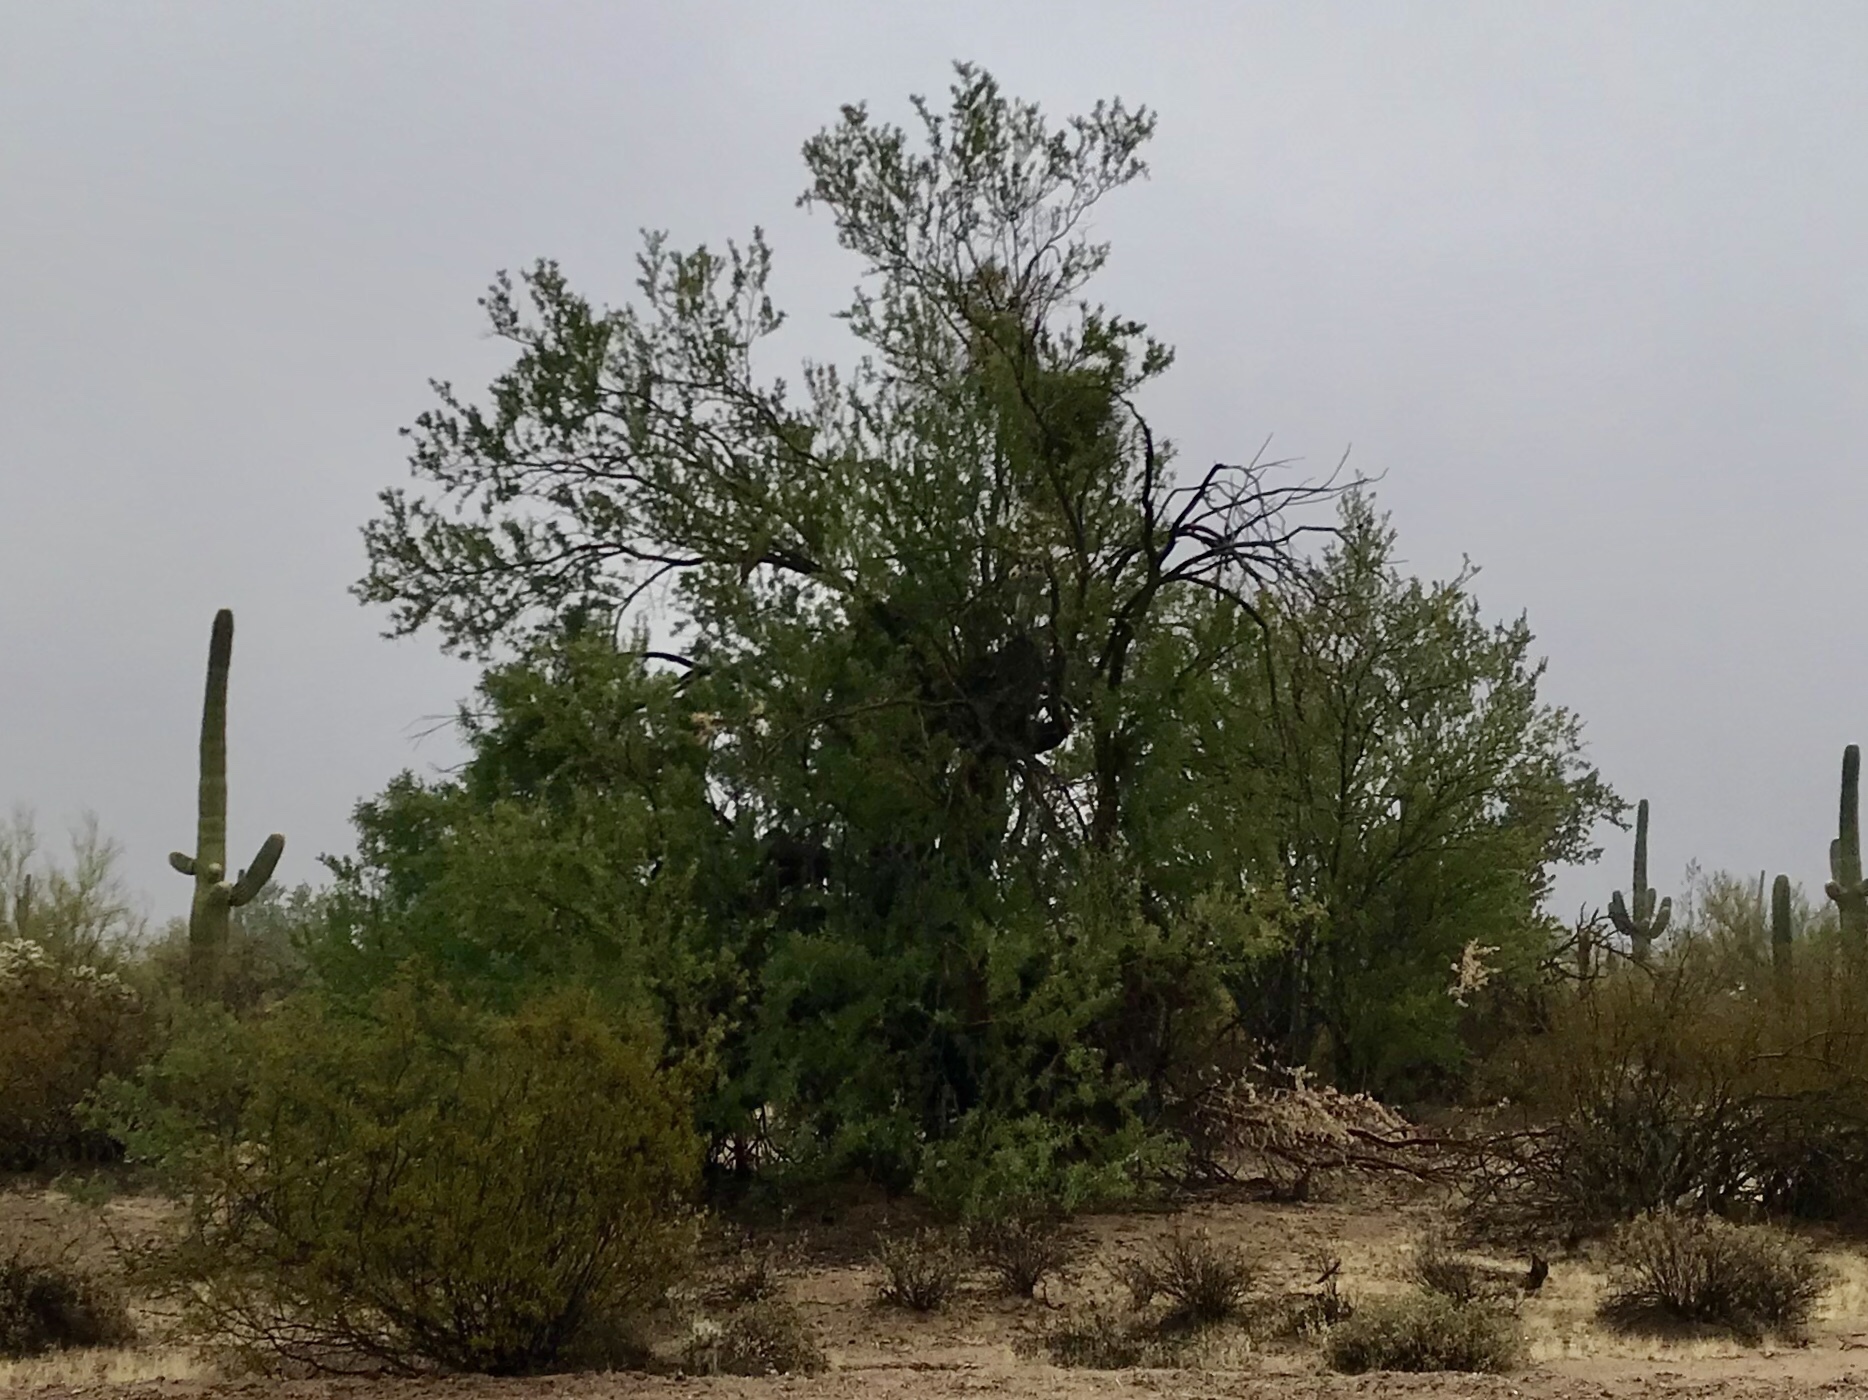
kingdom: Plantae
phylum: Tracheophyta
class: Magnoliopsida
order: Fabales
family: Fabaceae
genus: Olneya
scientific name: Olneya tesota
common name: Desert ironwood
